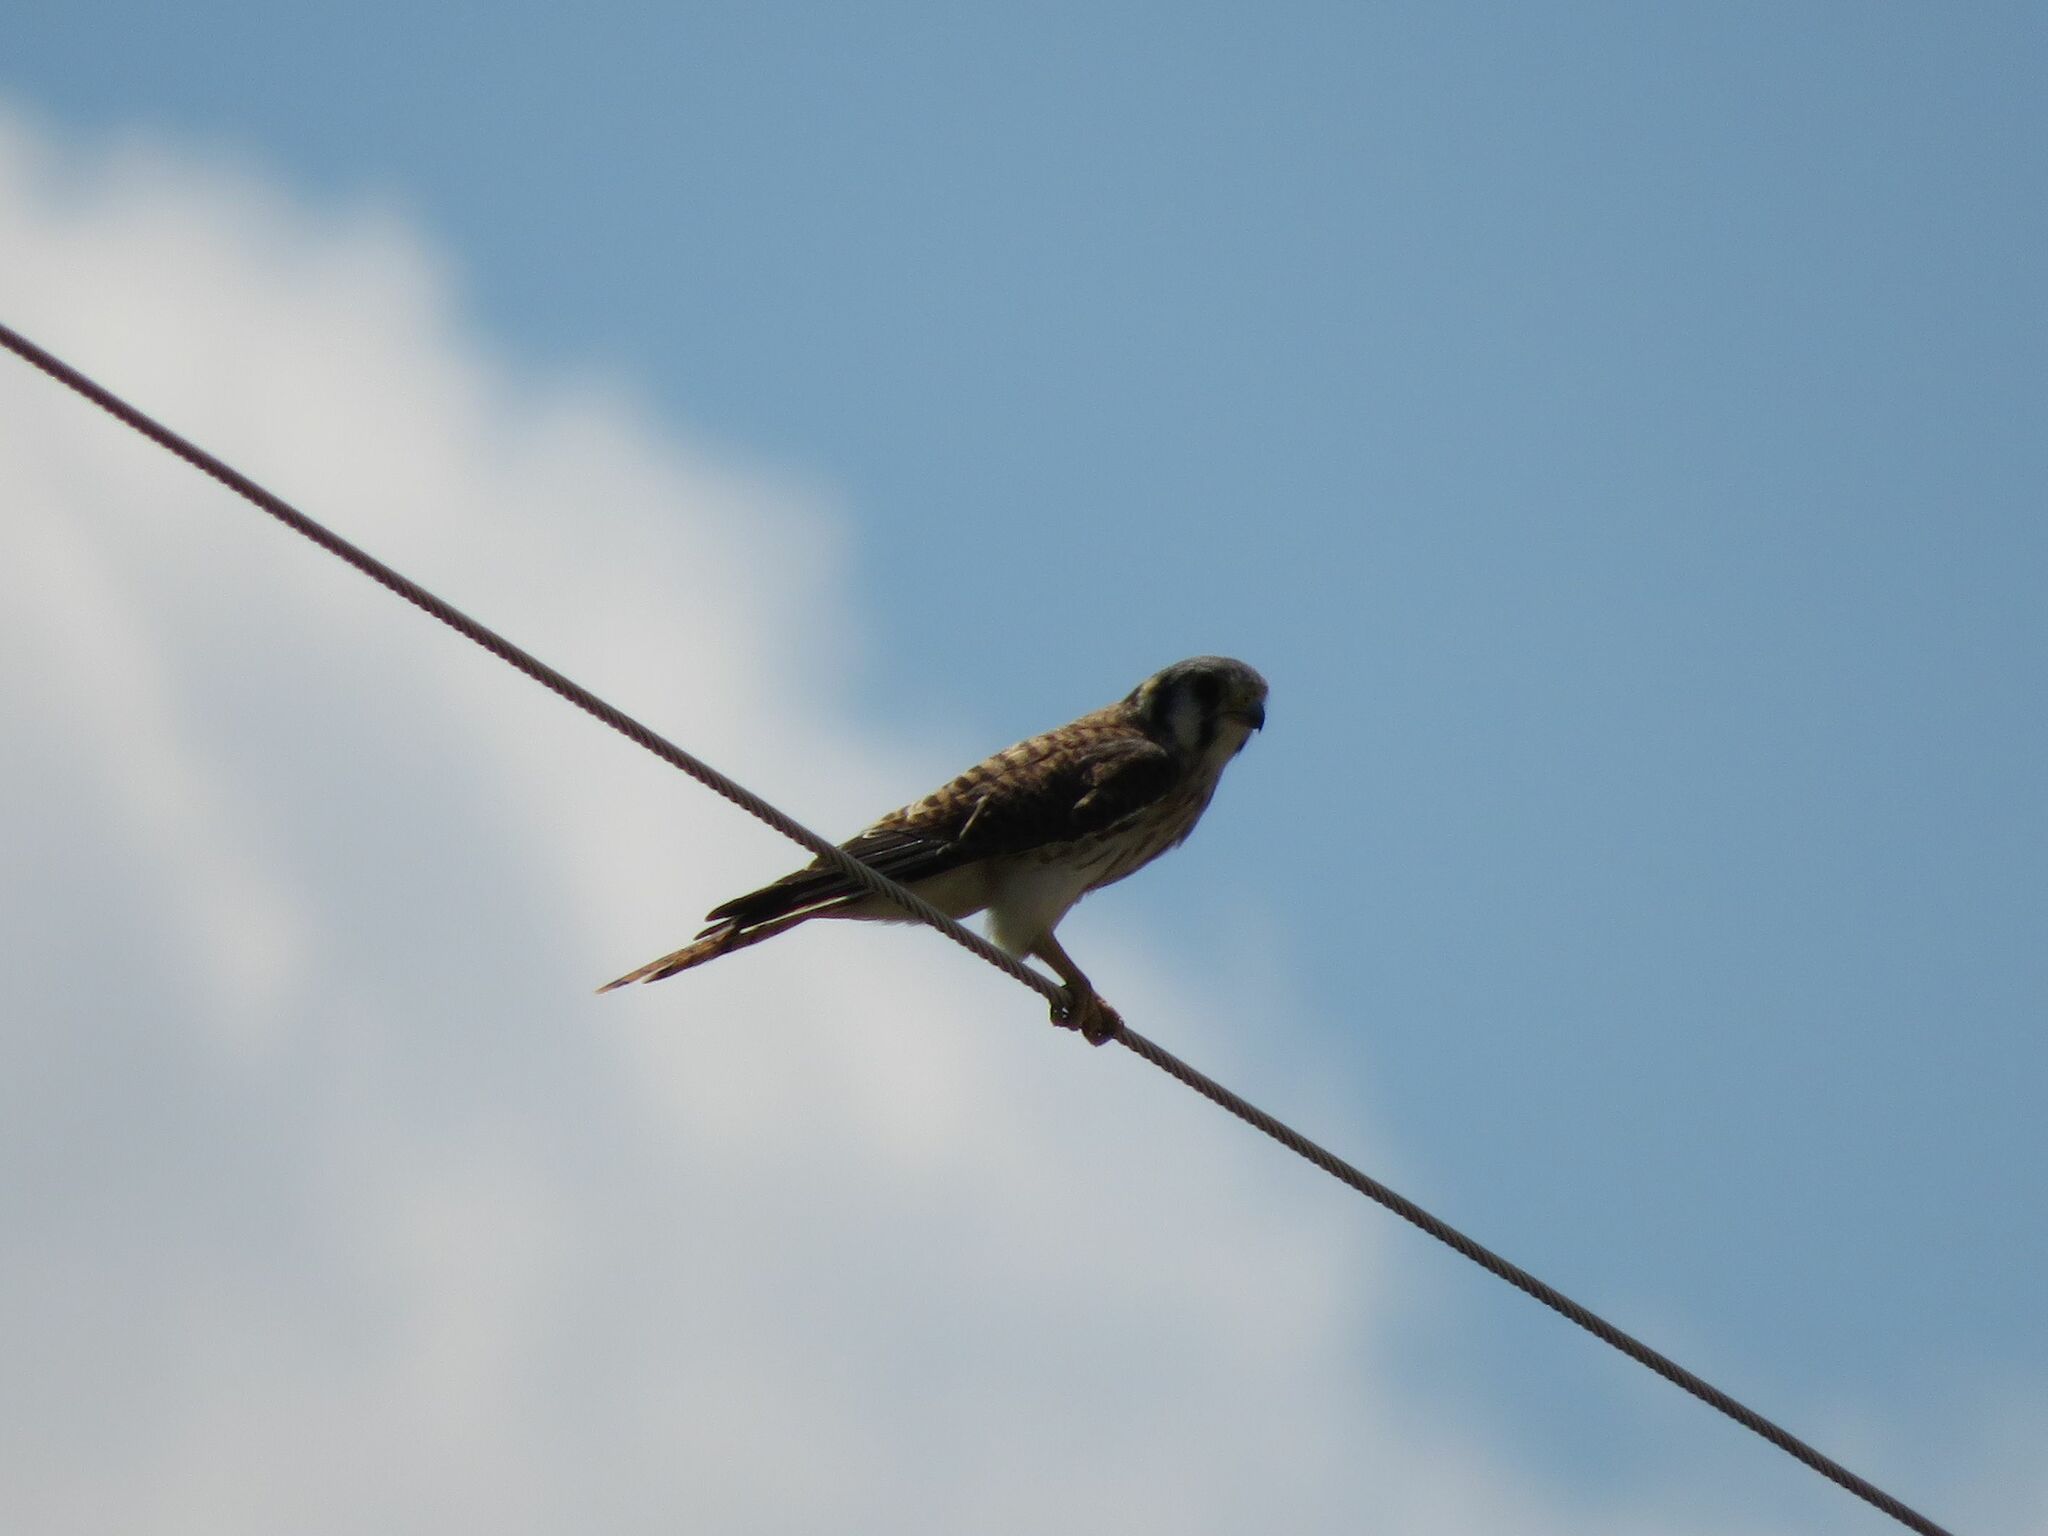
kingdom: Animalia
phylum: Chordata
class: Aves
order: Falconiformes
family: Falconidae
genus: Falco
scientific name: Falco sparverius
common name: American kestrel
